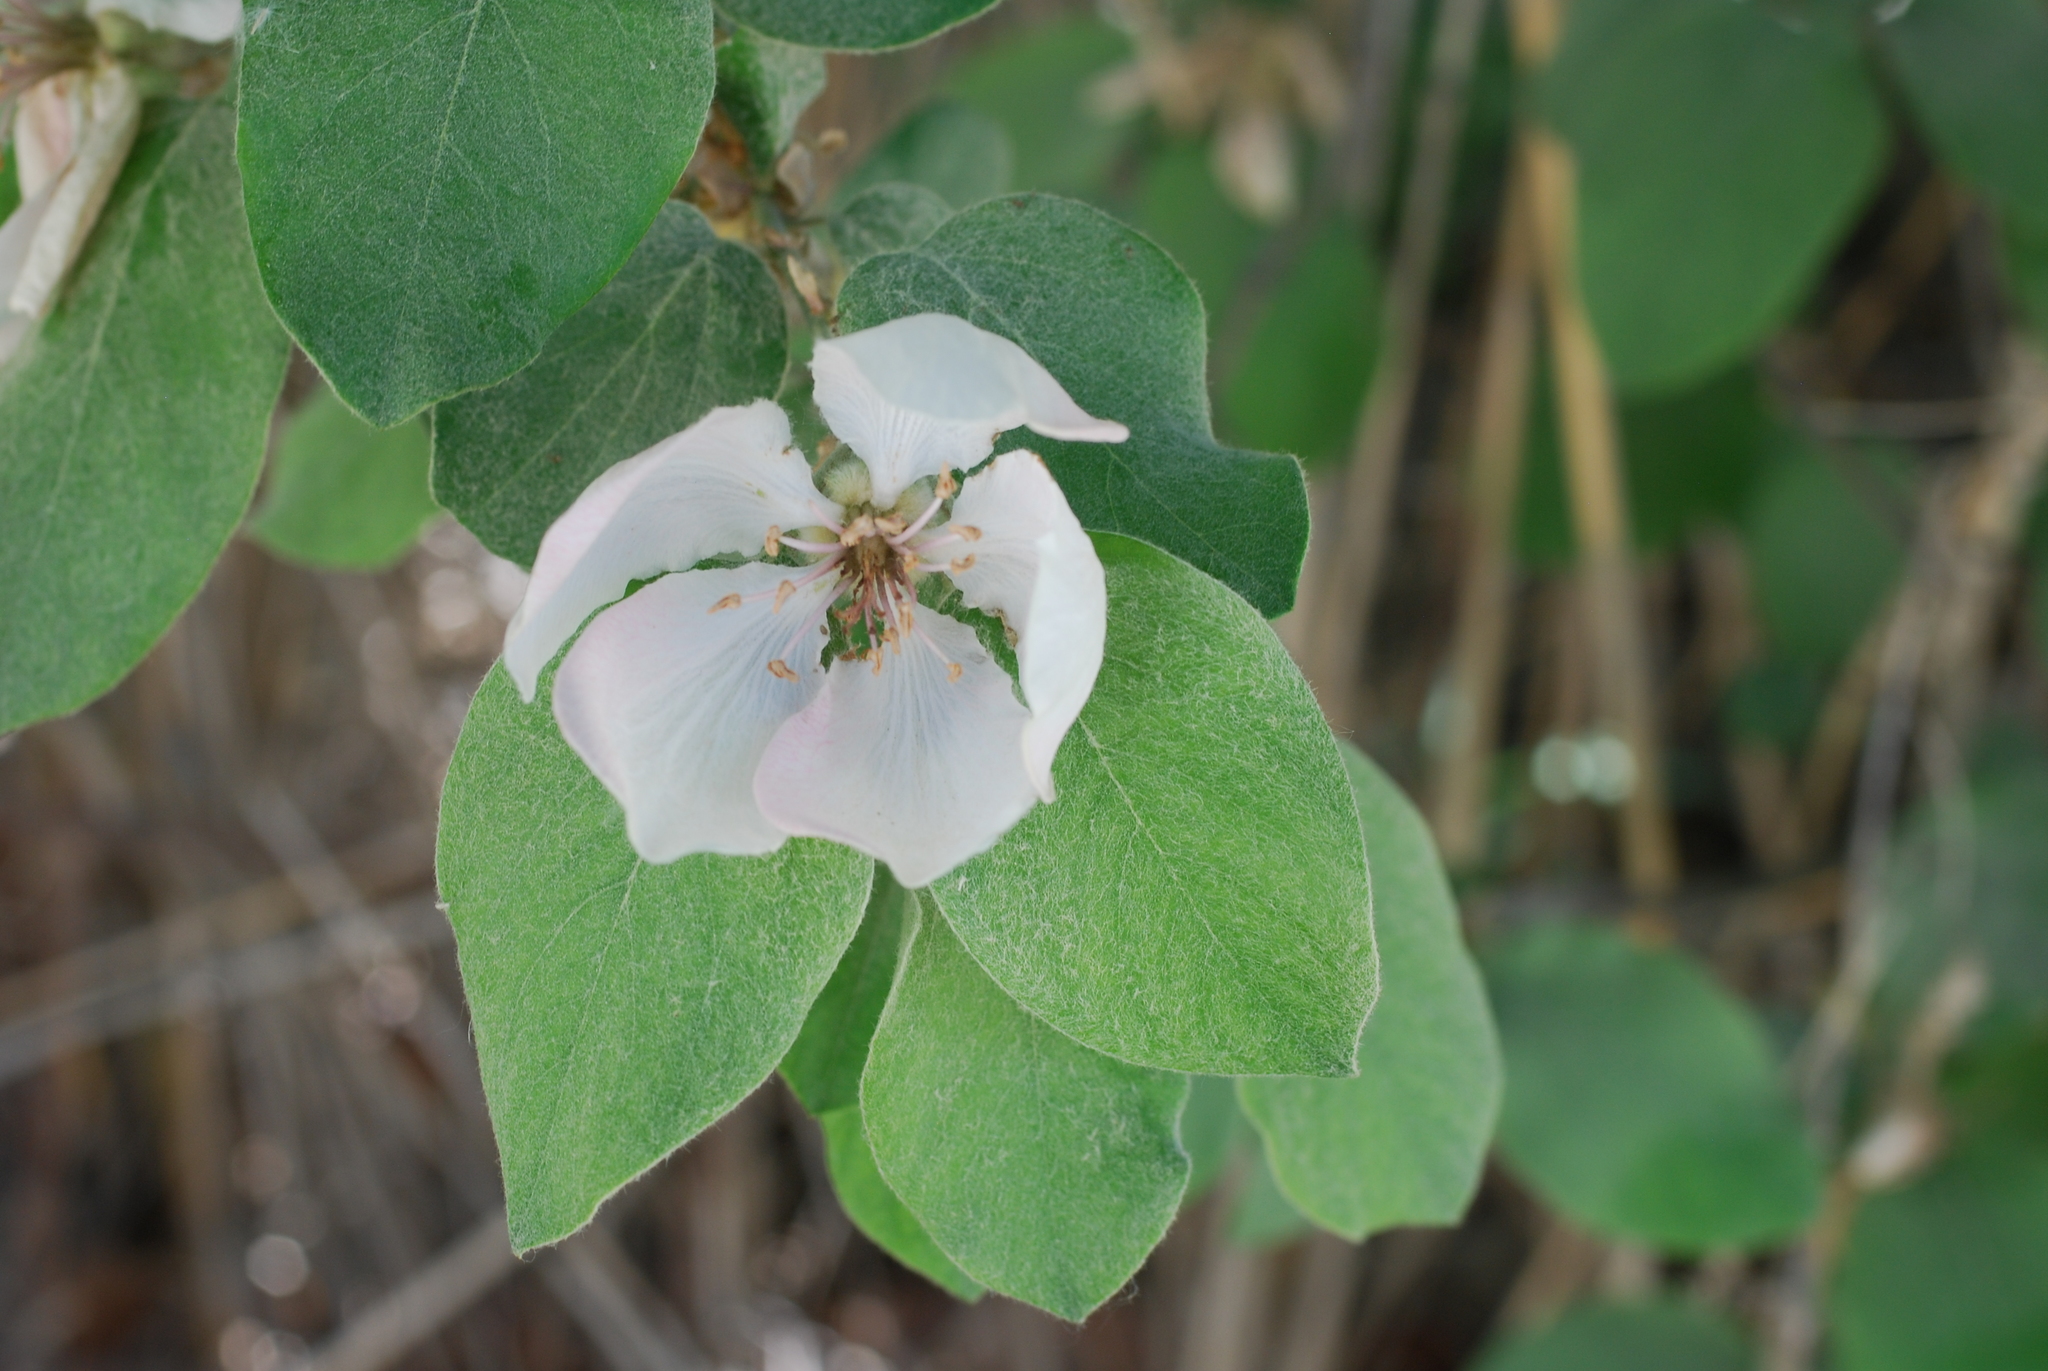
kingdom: Plantae
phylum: Tracheophyta
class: Magnoliopsida
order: Rosales
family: Rosaceae
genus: Cydonia
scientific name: Cydonia oblonga
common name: Quince
